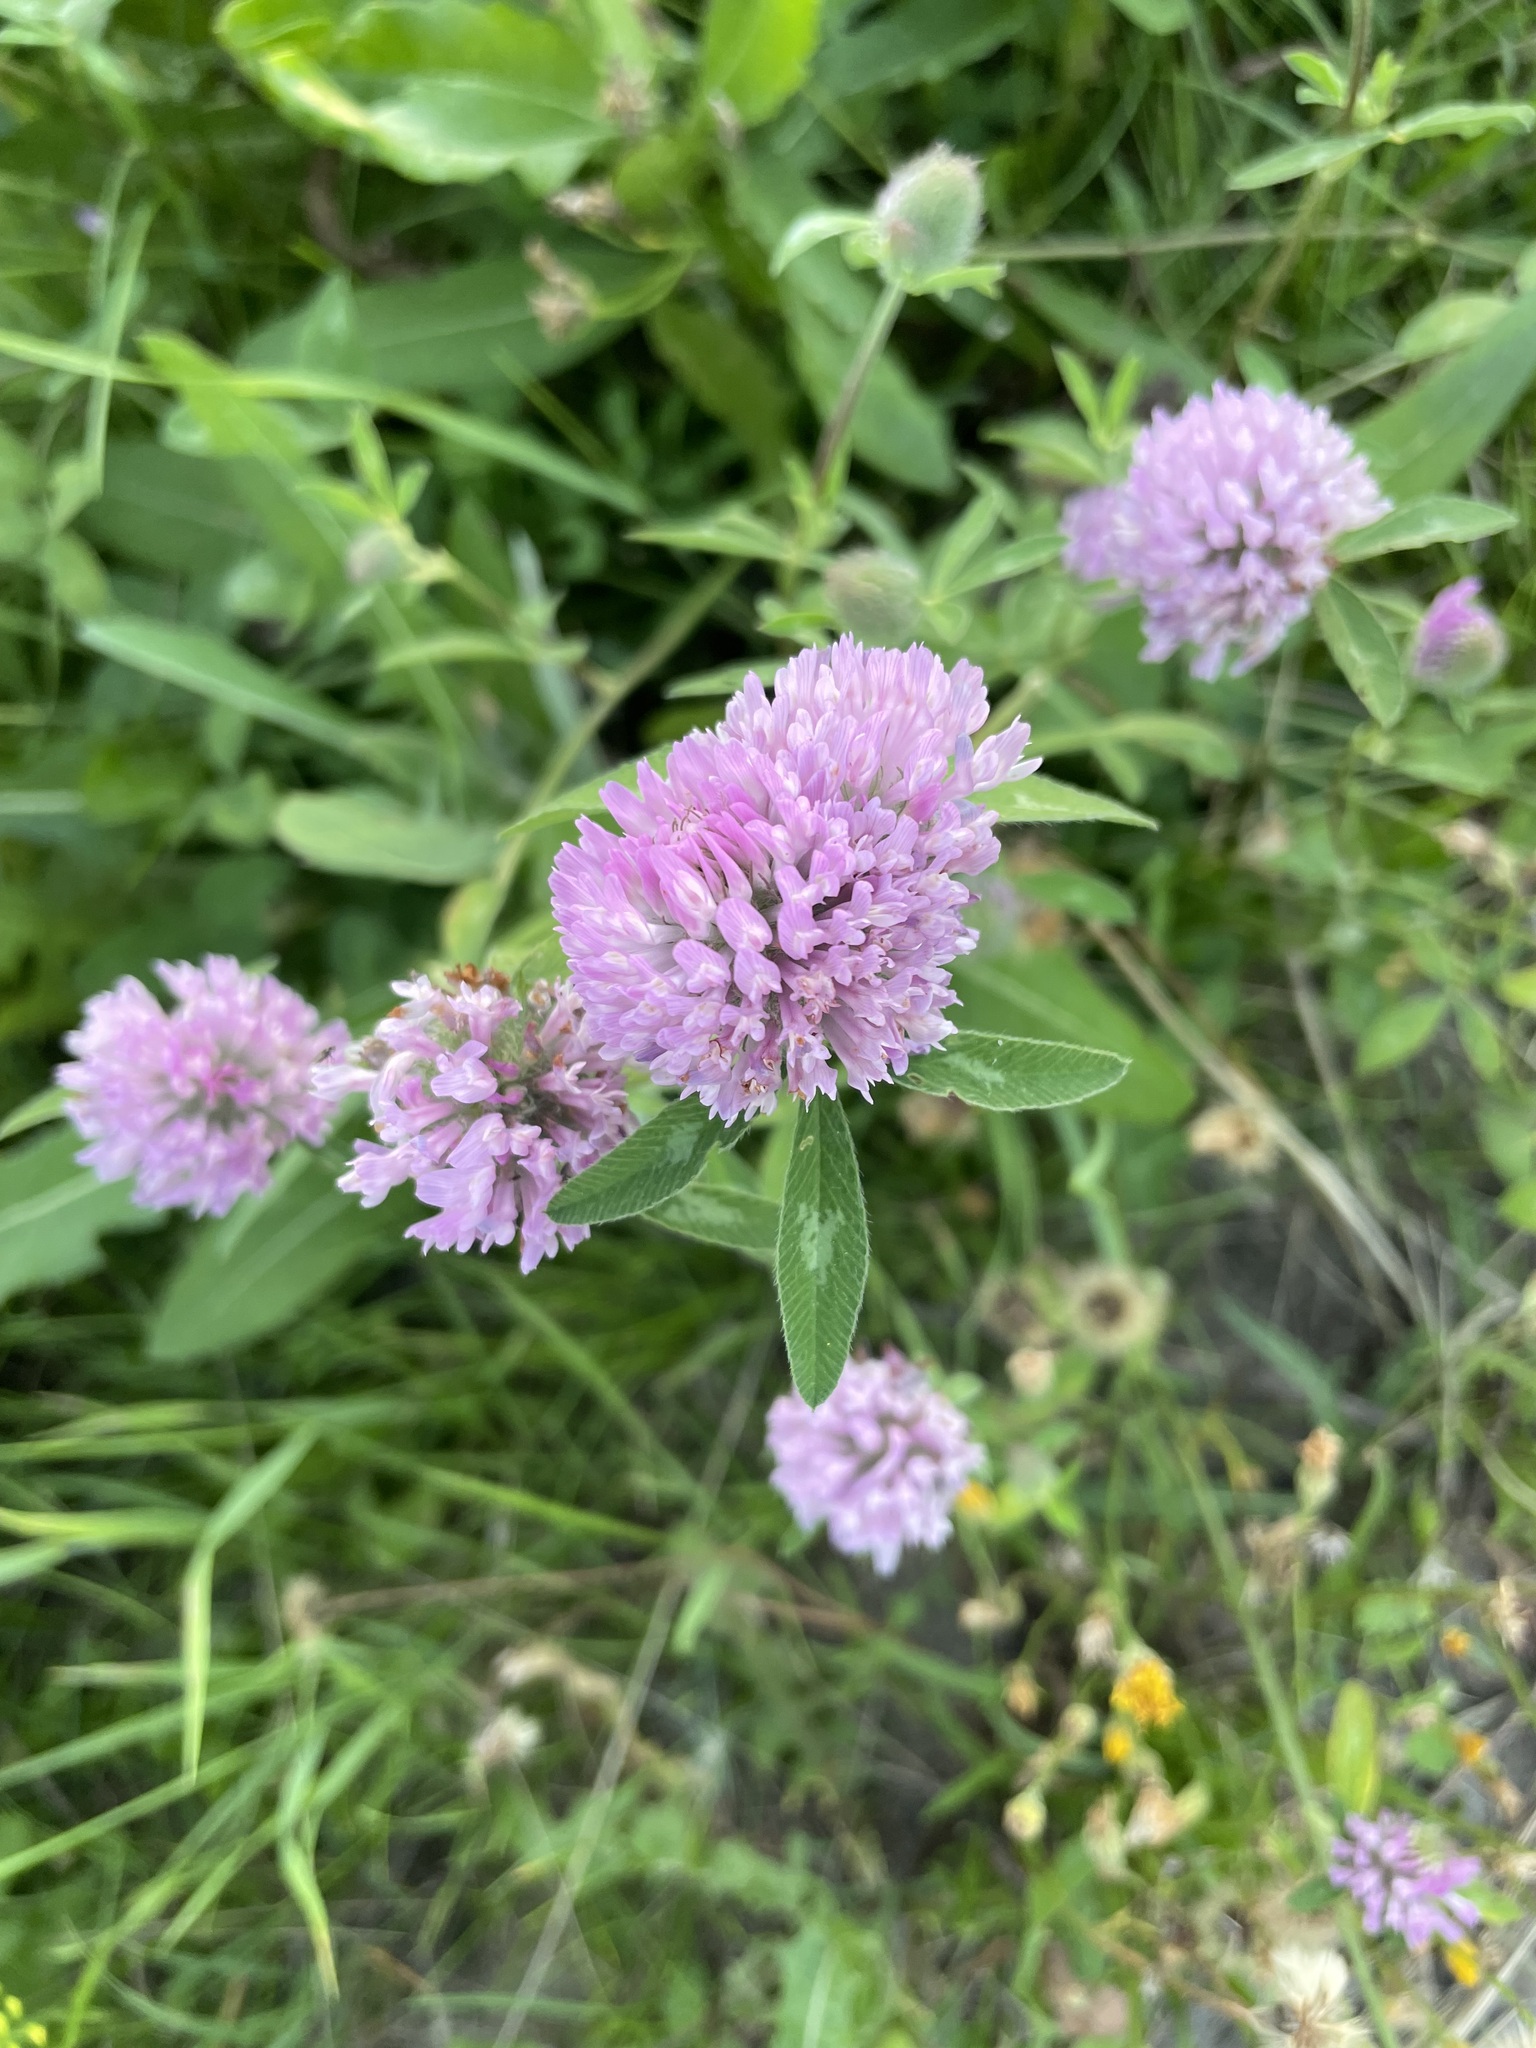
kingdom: Plantae
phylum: Tracheophyta
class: Magnoliopsida
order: Fabales
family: Fabaceae
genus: Trifolium
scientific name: Trifolium pratense
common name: Red clover
